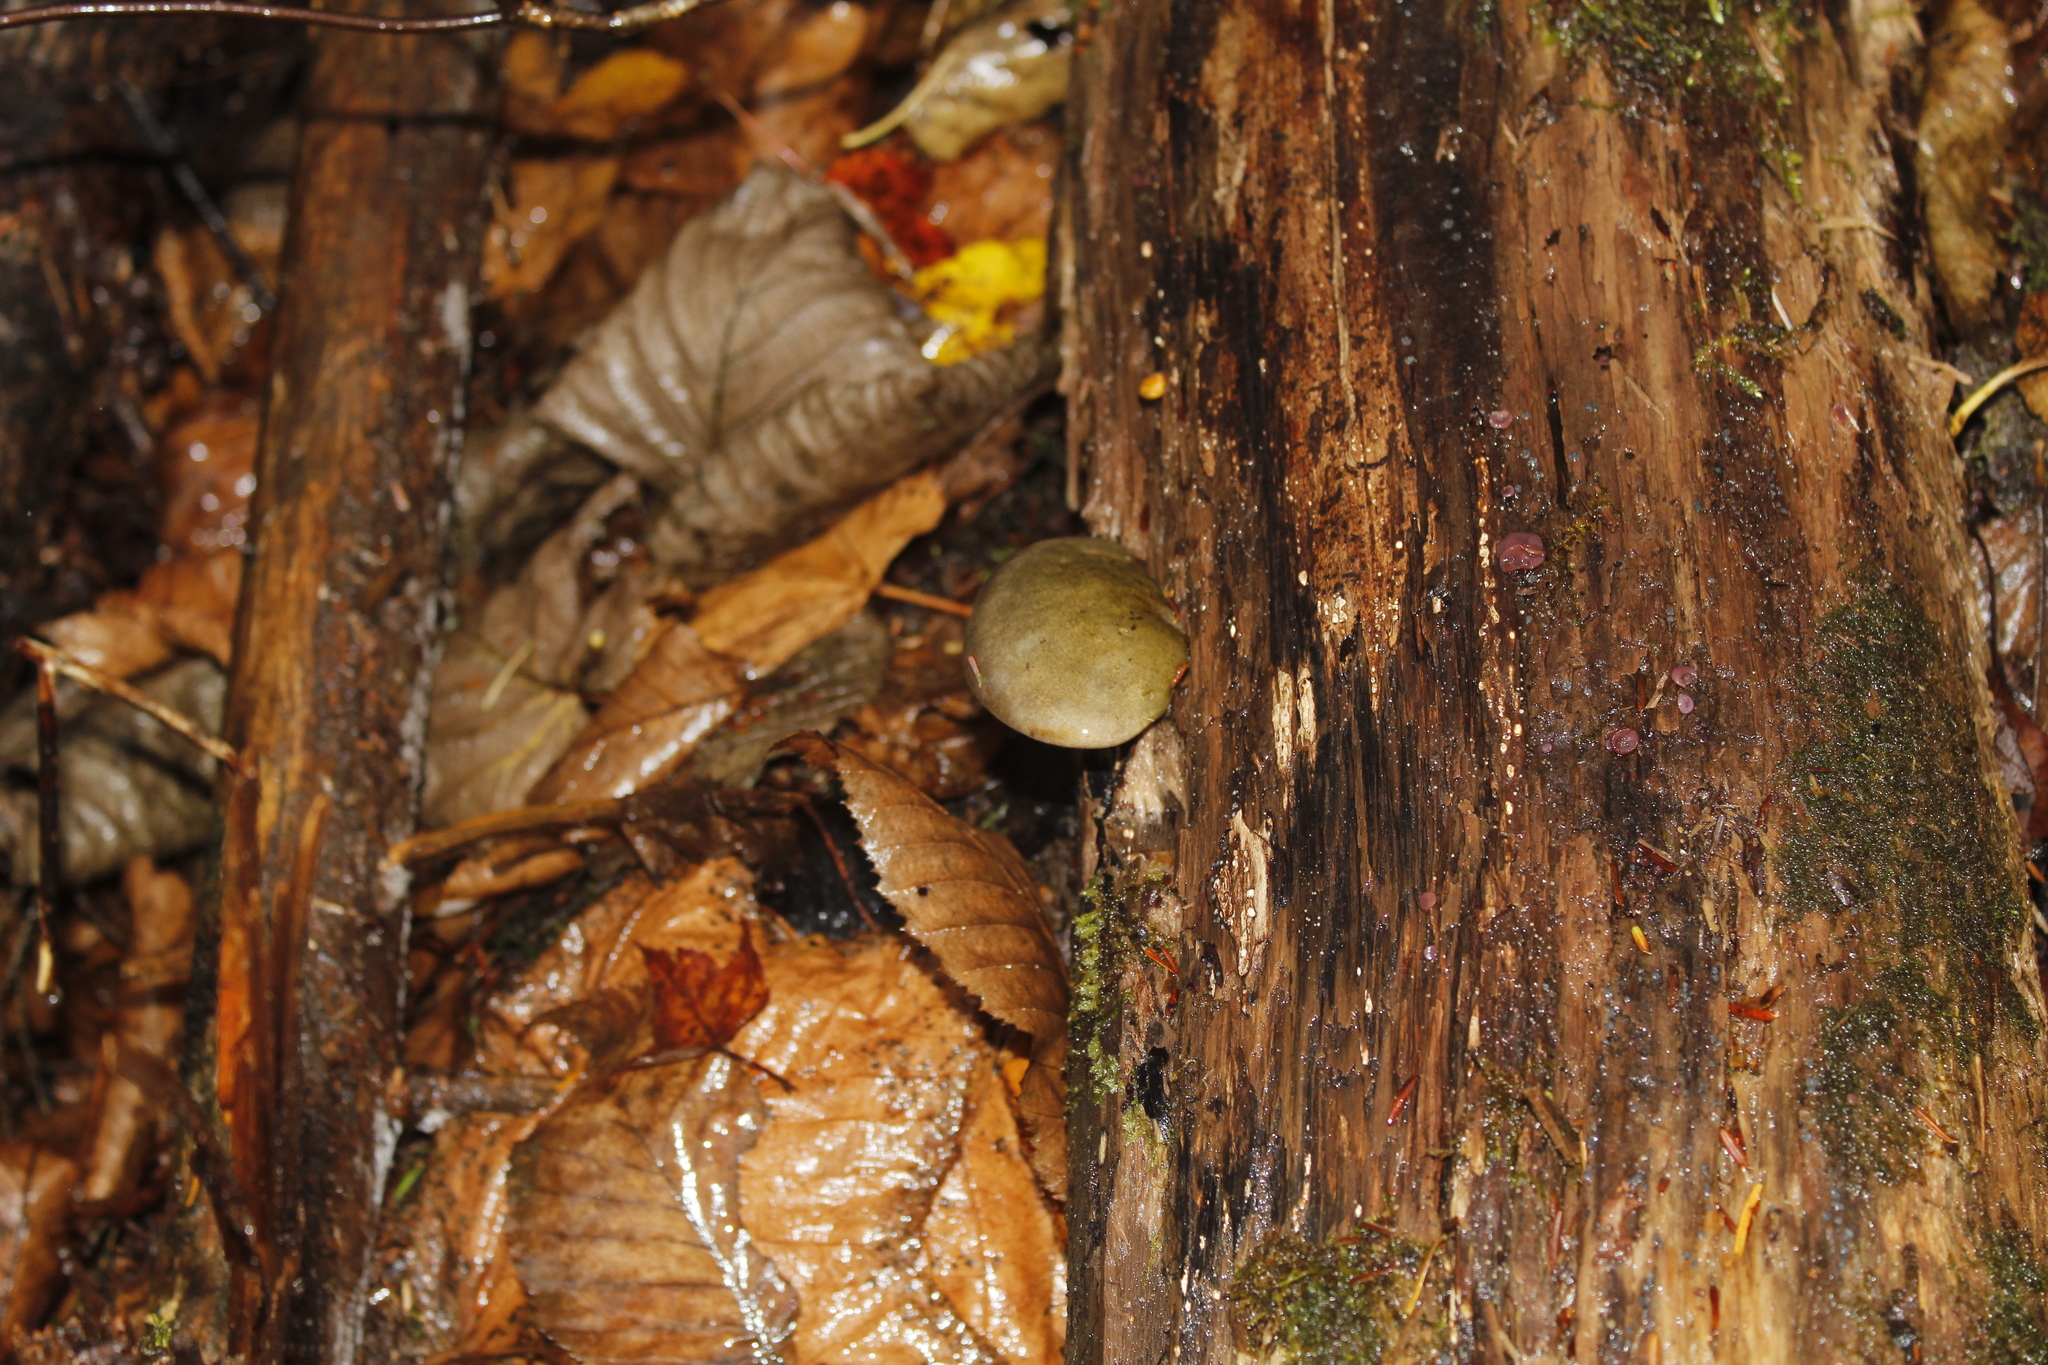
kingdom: Fungi
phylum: Basidiomycota
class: Agaricomycetes
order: Agaricales
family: Sarcomyxaceae
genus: Sarcomyxa
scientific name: Sarcomyxa serotina
